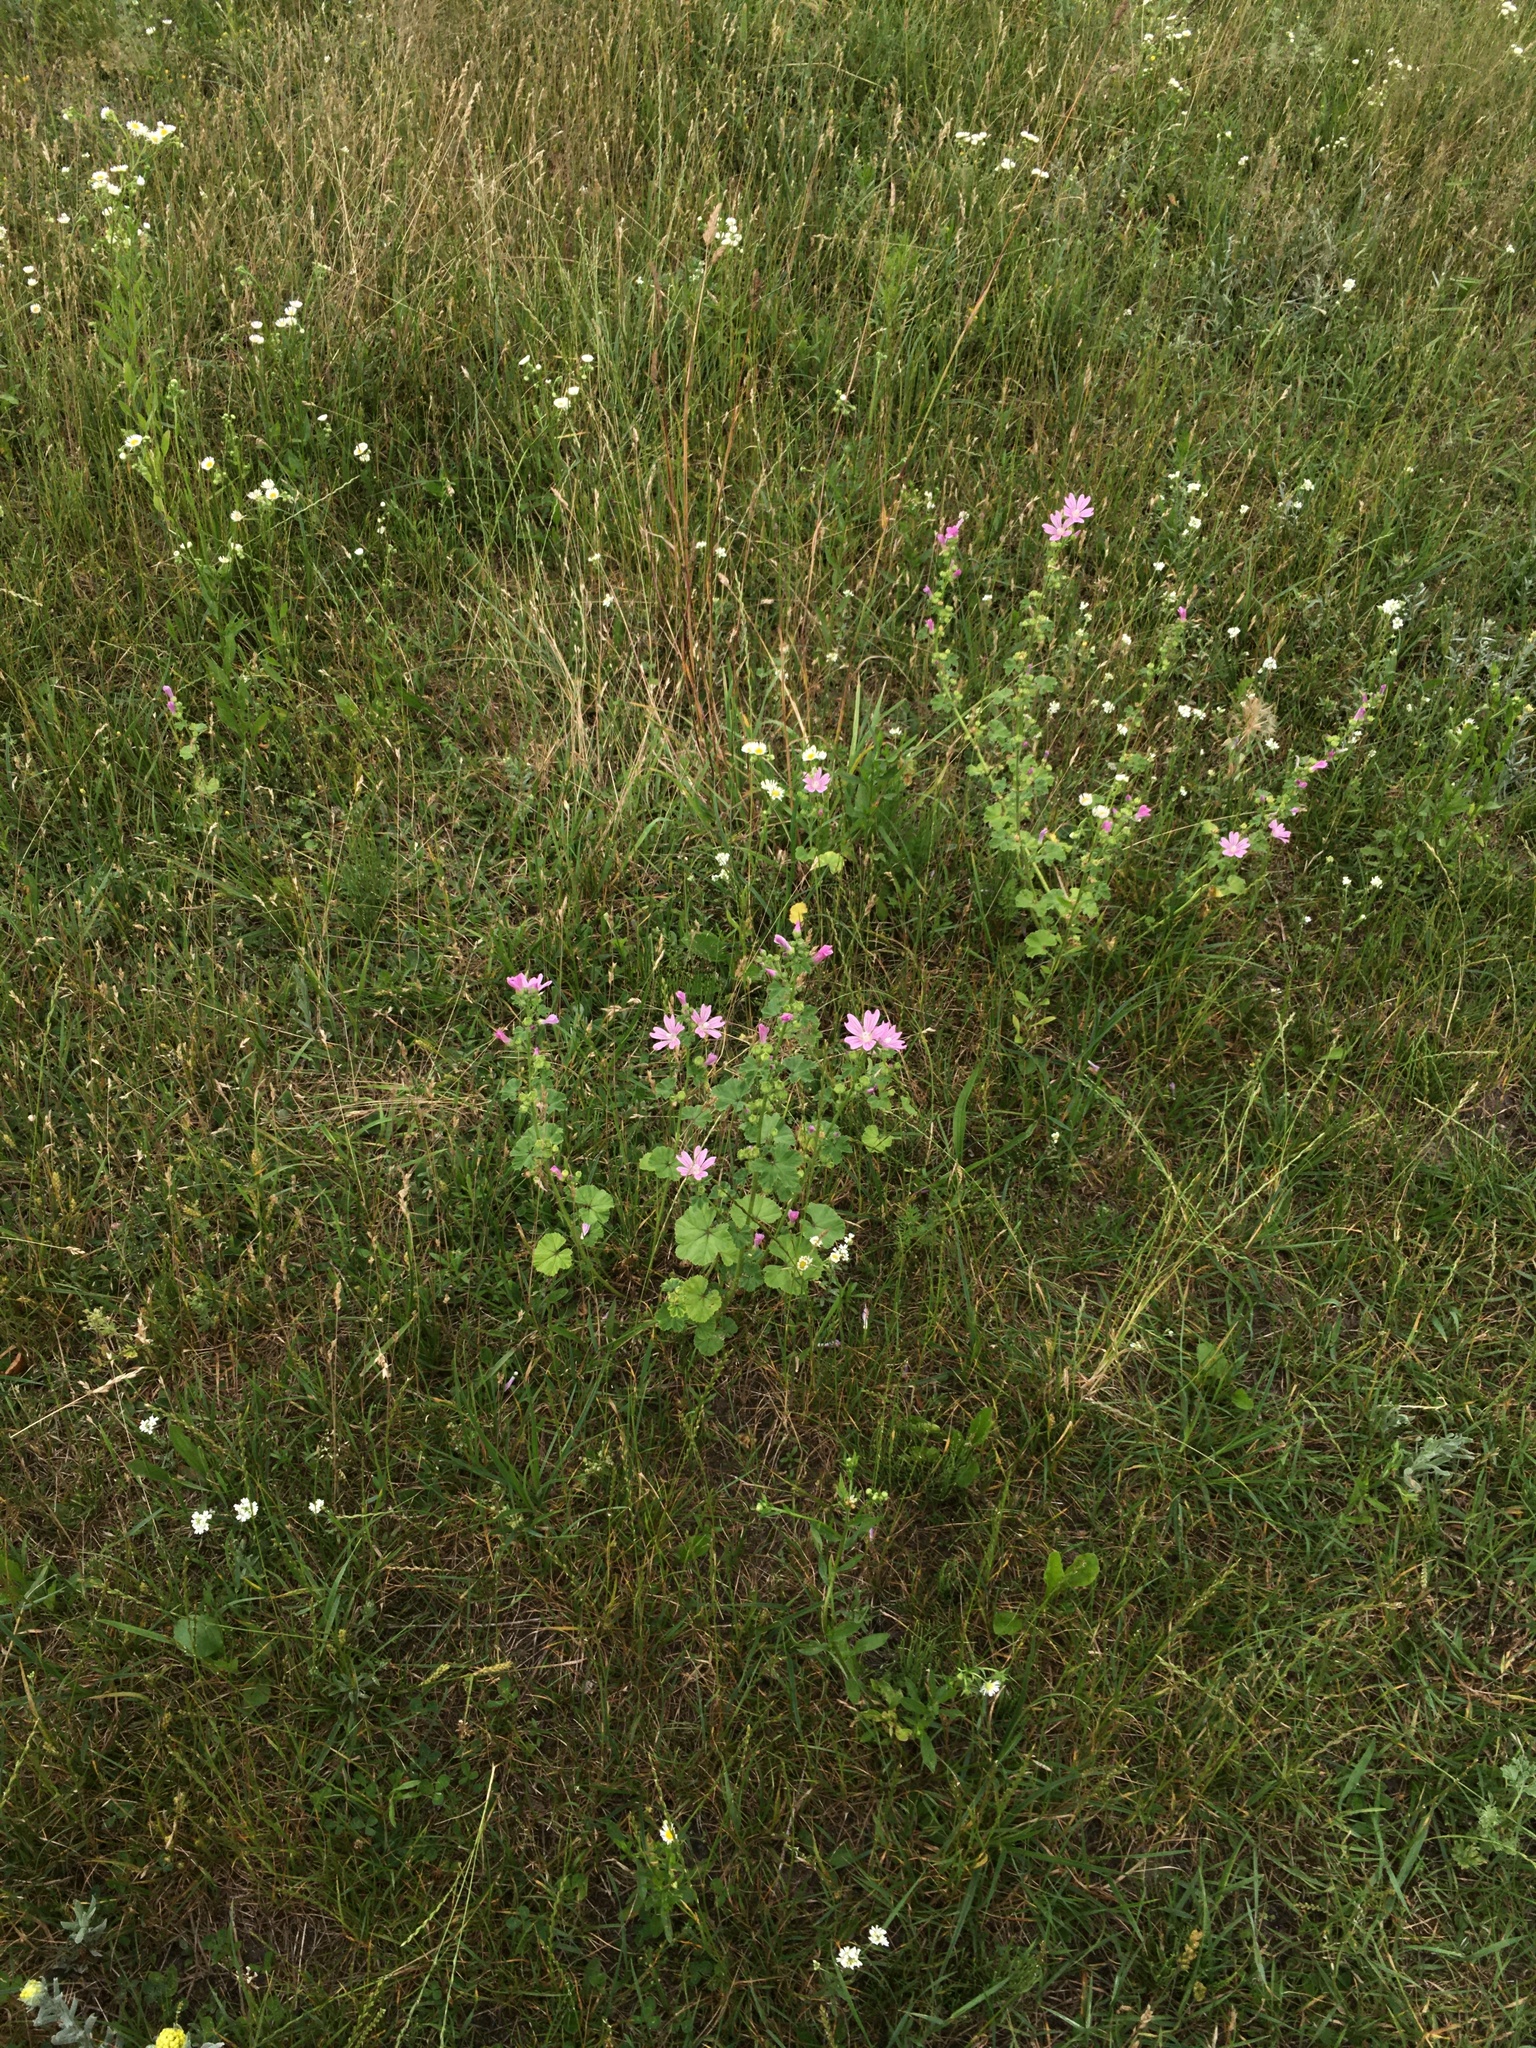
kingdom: Plantae
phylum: Tracheophyta
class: Magnoliopsida
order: Malvales
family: Malvaceae
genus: Malva
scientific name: Malva sylvestris
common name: Common mallow
